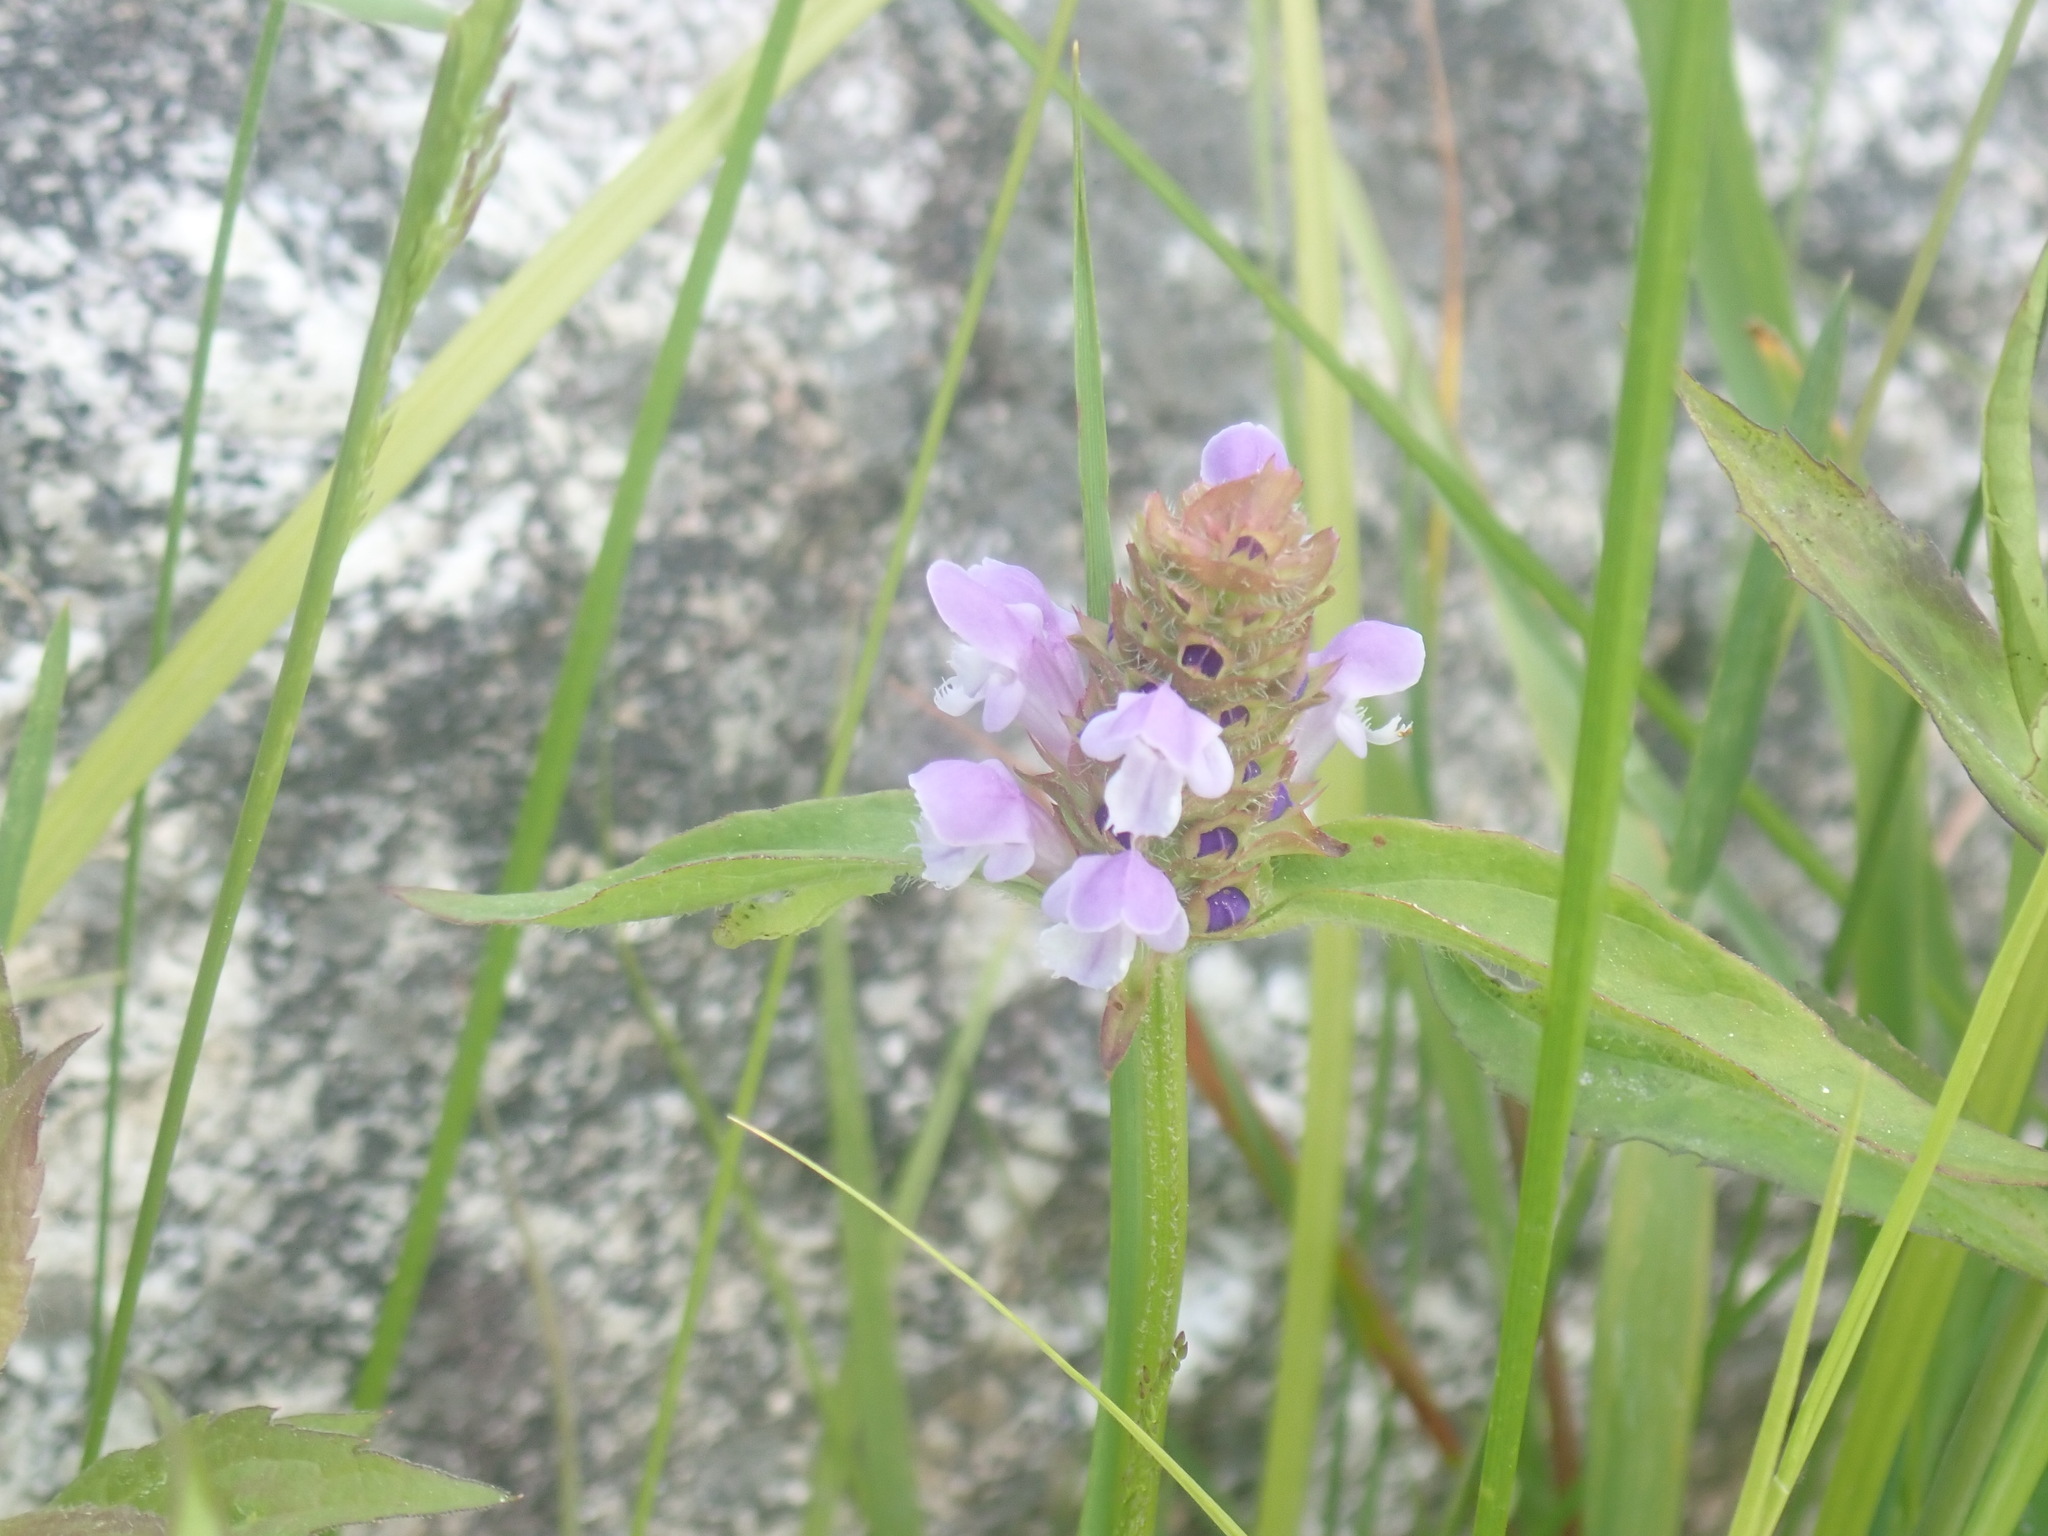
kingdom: Plantae
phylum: Tracheophyta
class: Magnoliopsida
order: Lamiales
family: Lamiaceae
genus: Prunella
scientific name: Prunella vulgaris
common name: Heal-all
